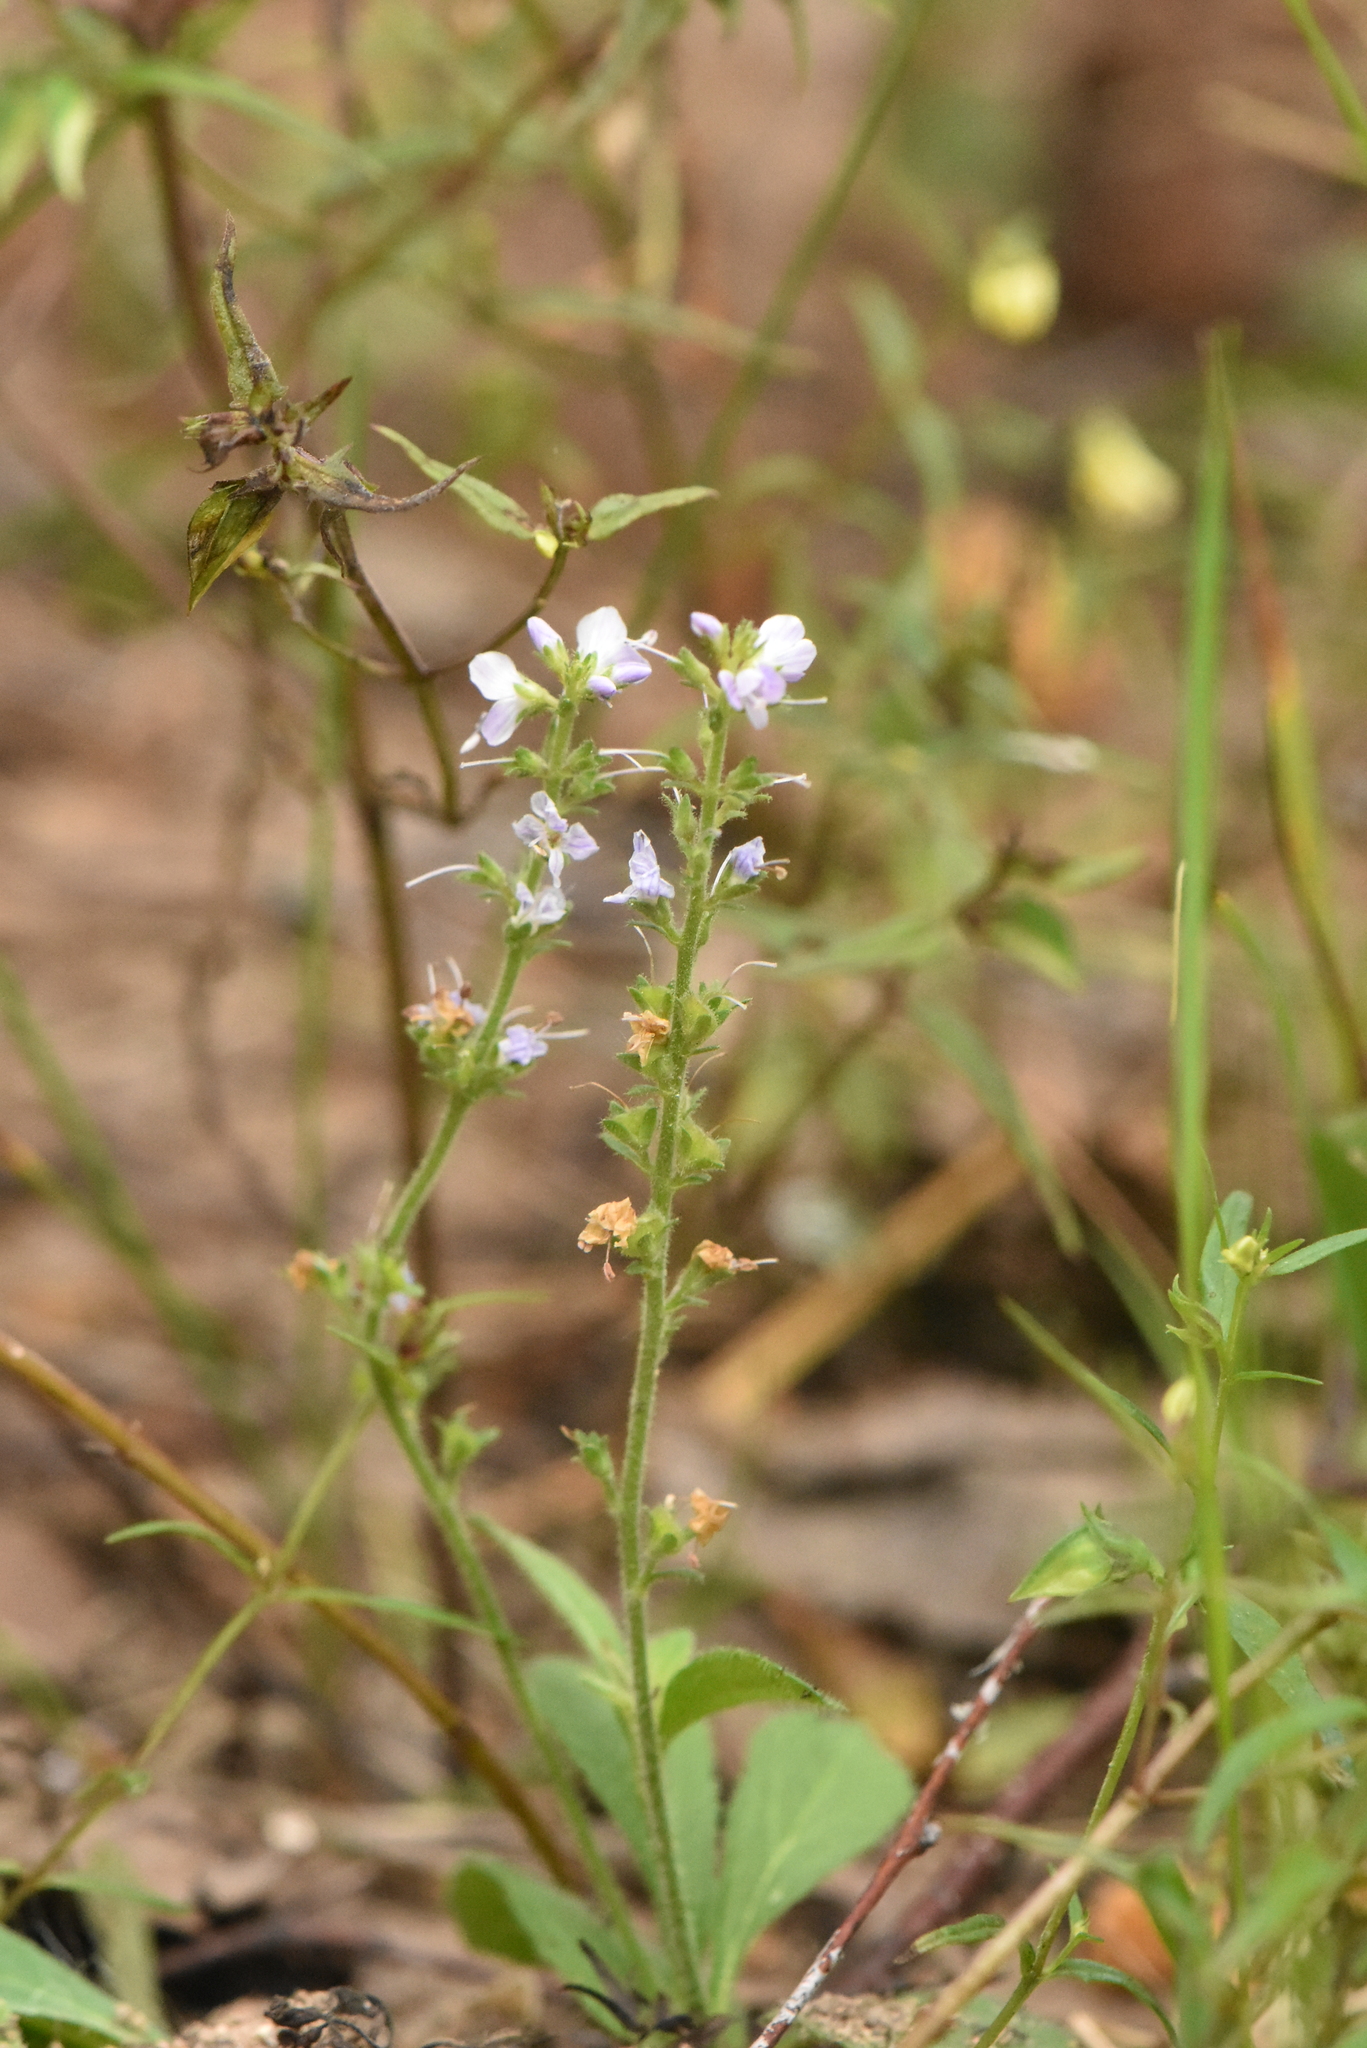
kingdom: Plantae
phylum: Tracheophyta
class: Magnoliopsida
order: Lamiales
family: Plantaginaceae
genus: Veronica
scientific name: Veronica officinalis
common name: Common speedwell
